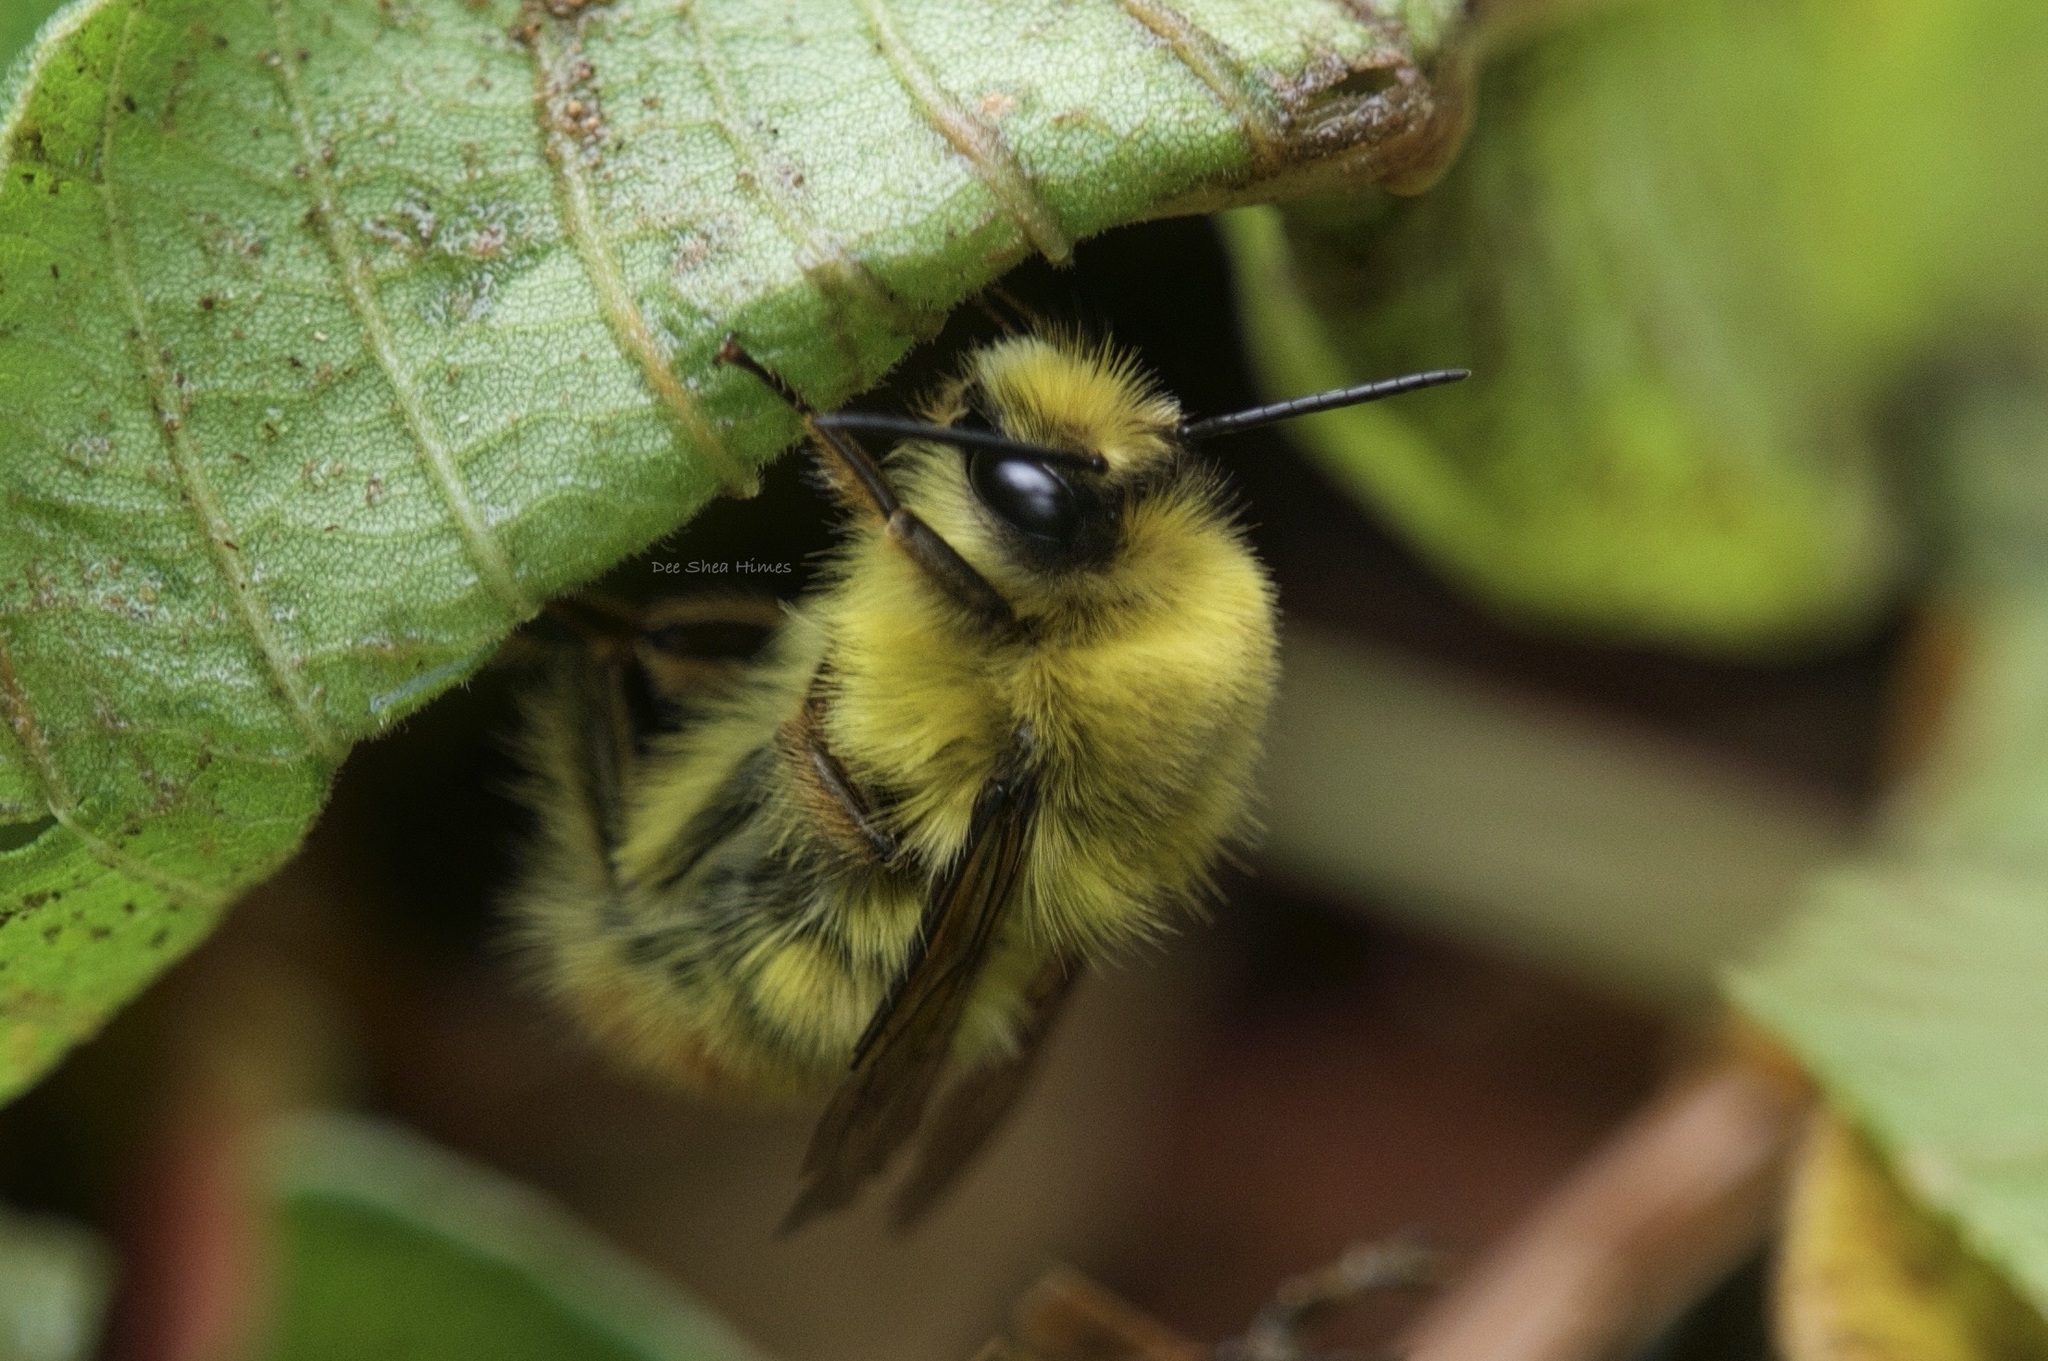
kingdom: Animalia
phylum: Arthropoda
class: Insecta
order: Hymenoptera
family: Apidae
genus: Bombus
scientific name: Bombus eurythorax
